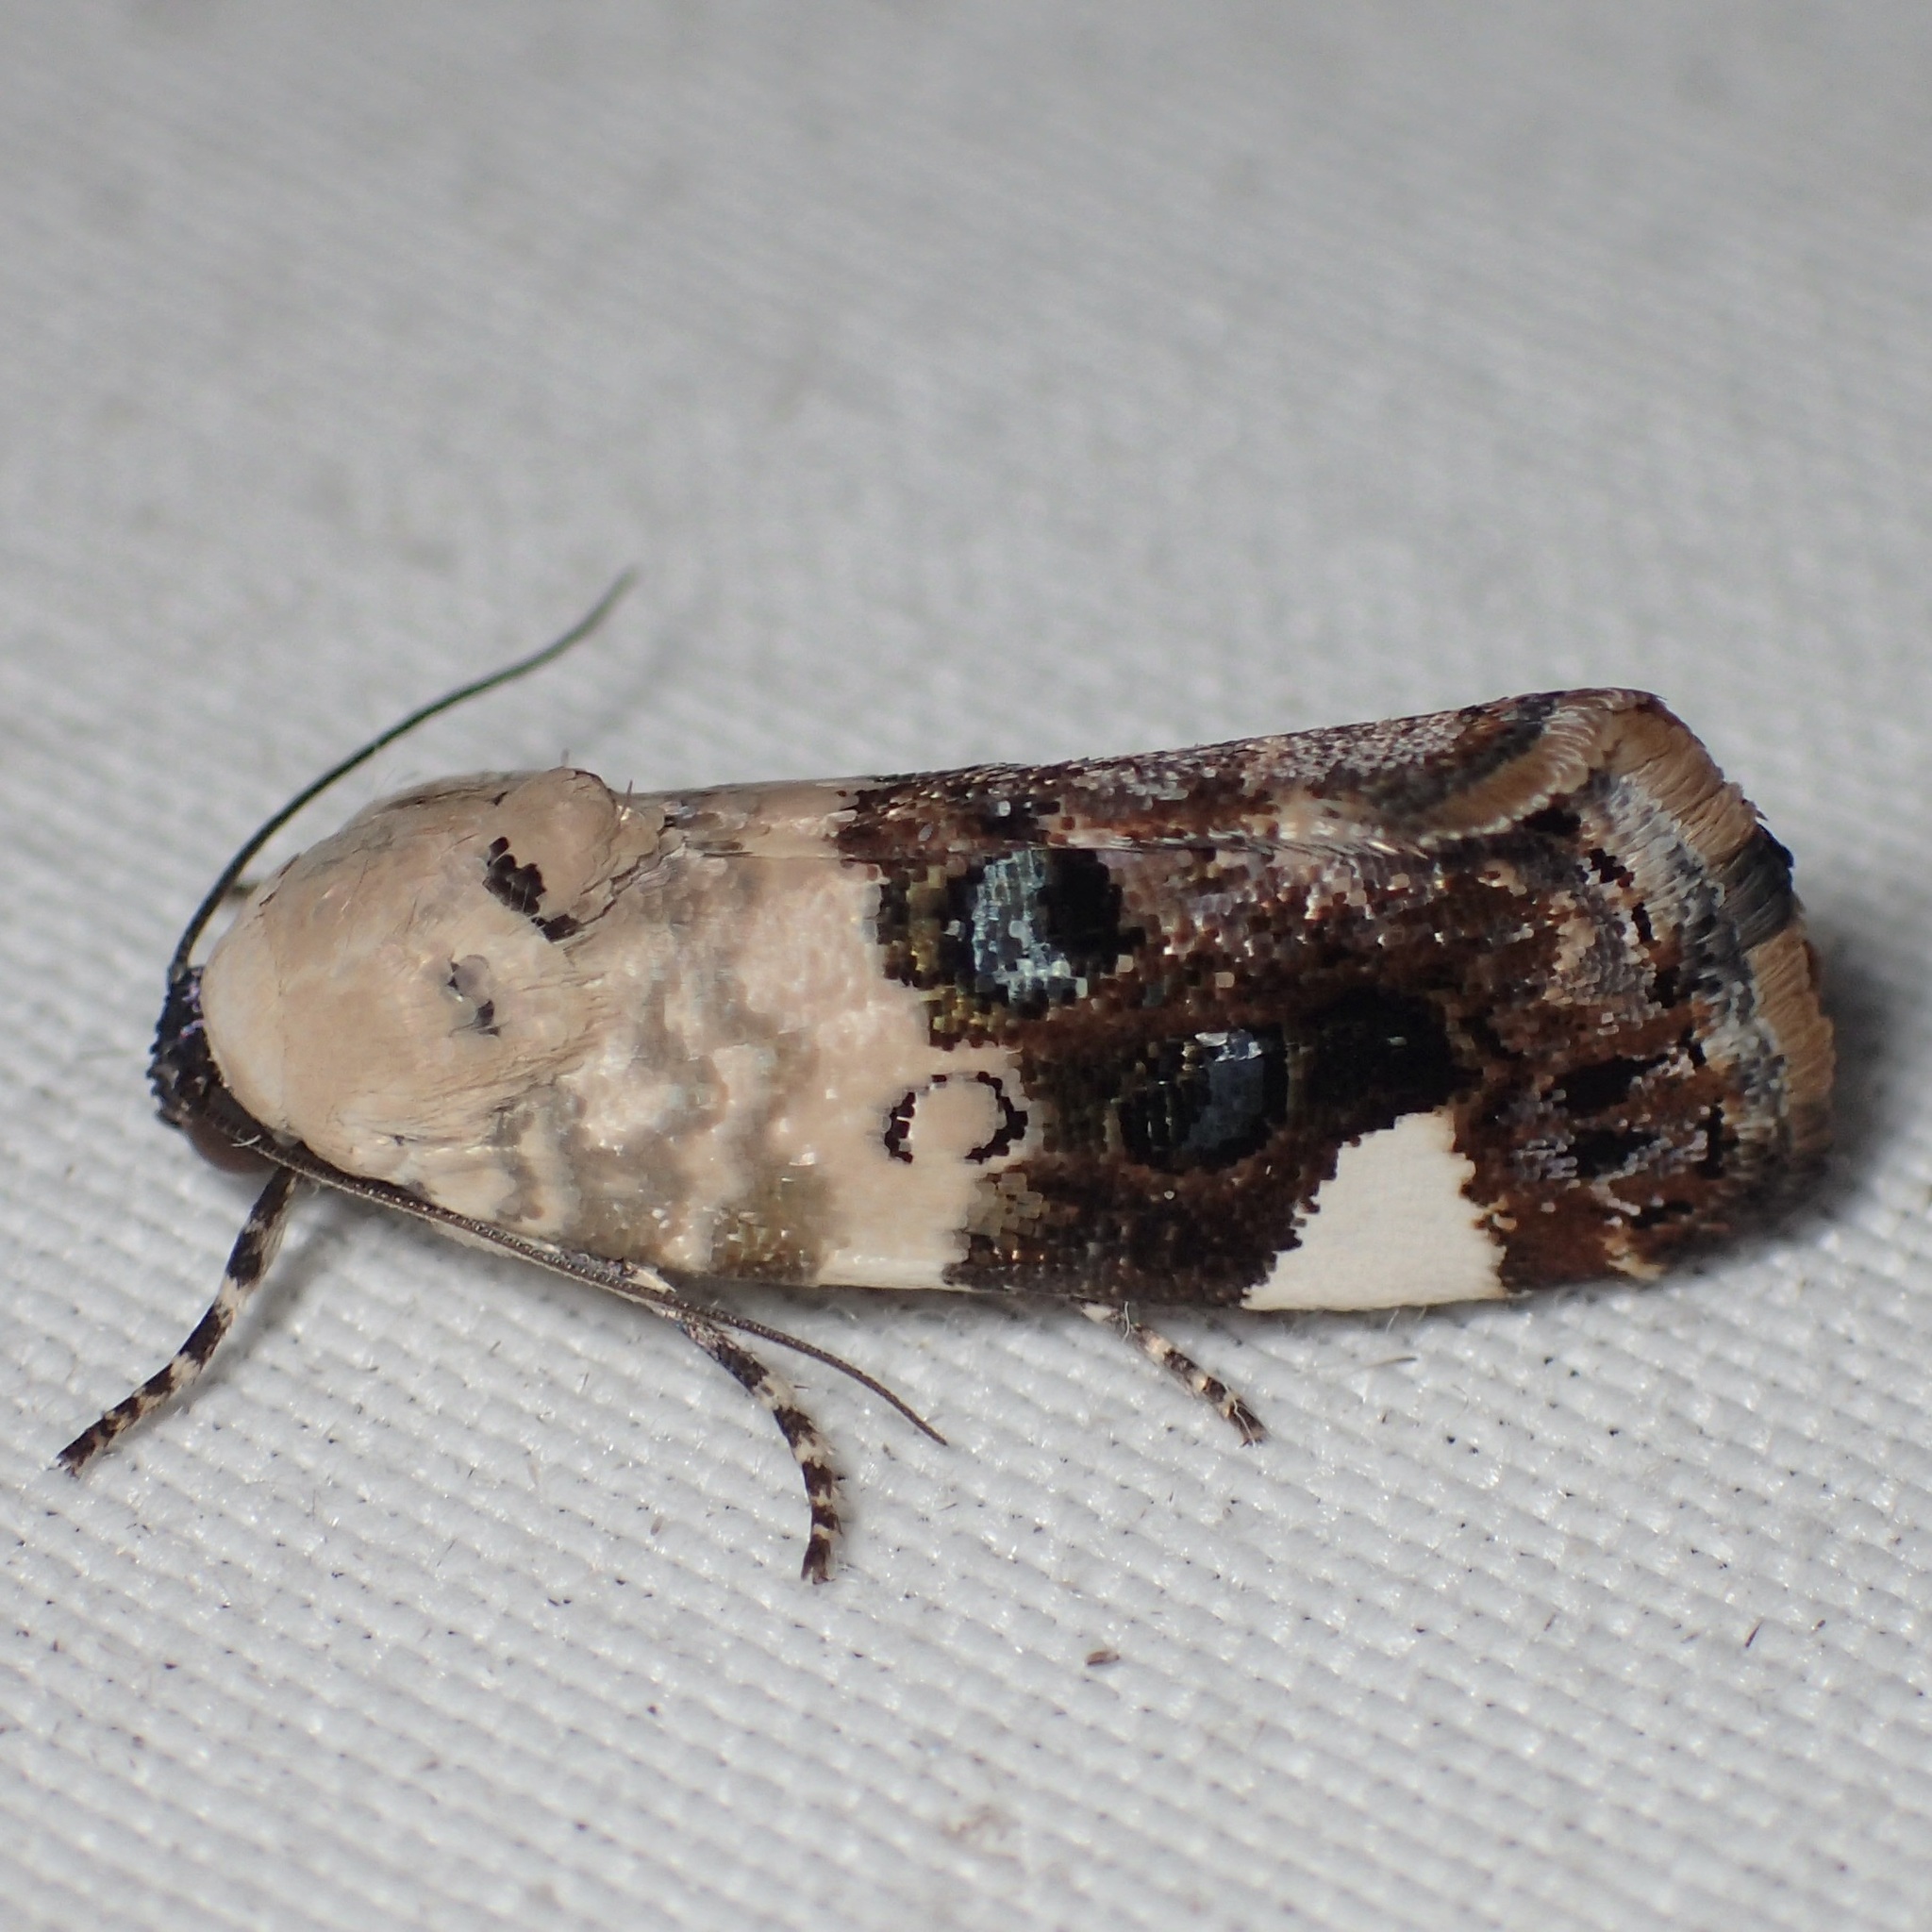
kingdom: Animalia
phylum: Arthropoda
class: Insecta
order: Lepidoptera
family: Noctuidae
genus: Acontia
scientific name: Acontia geminocula
